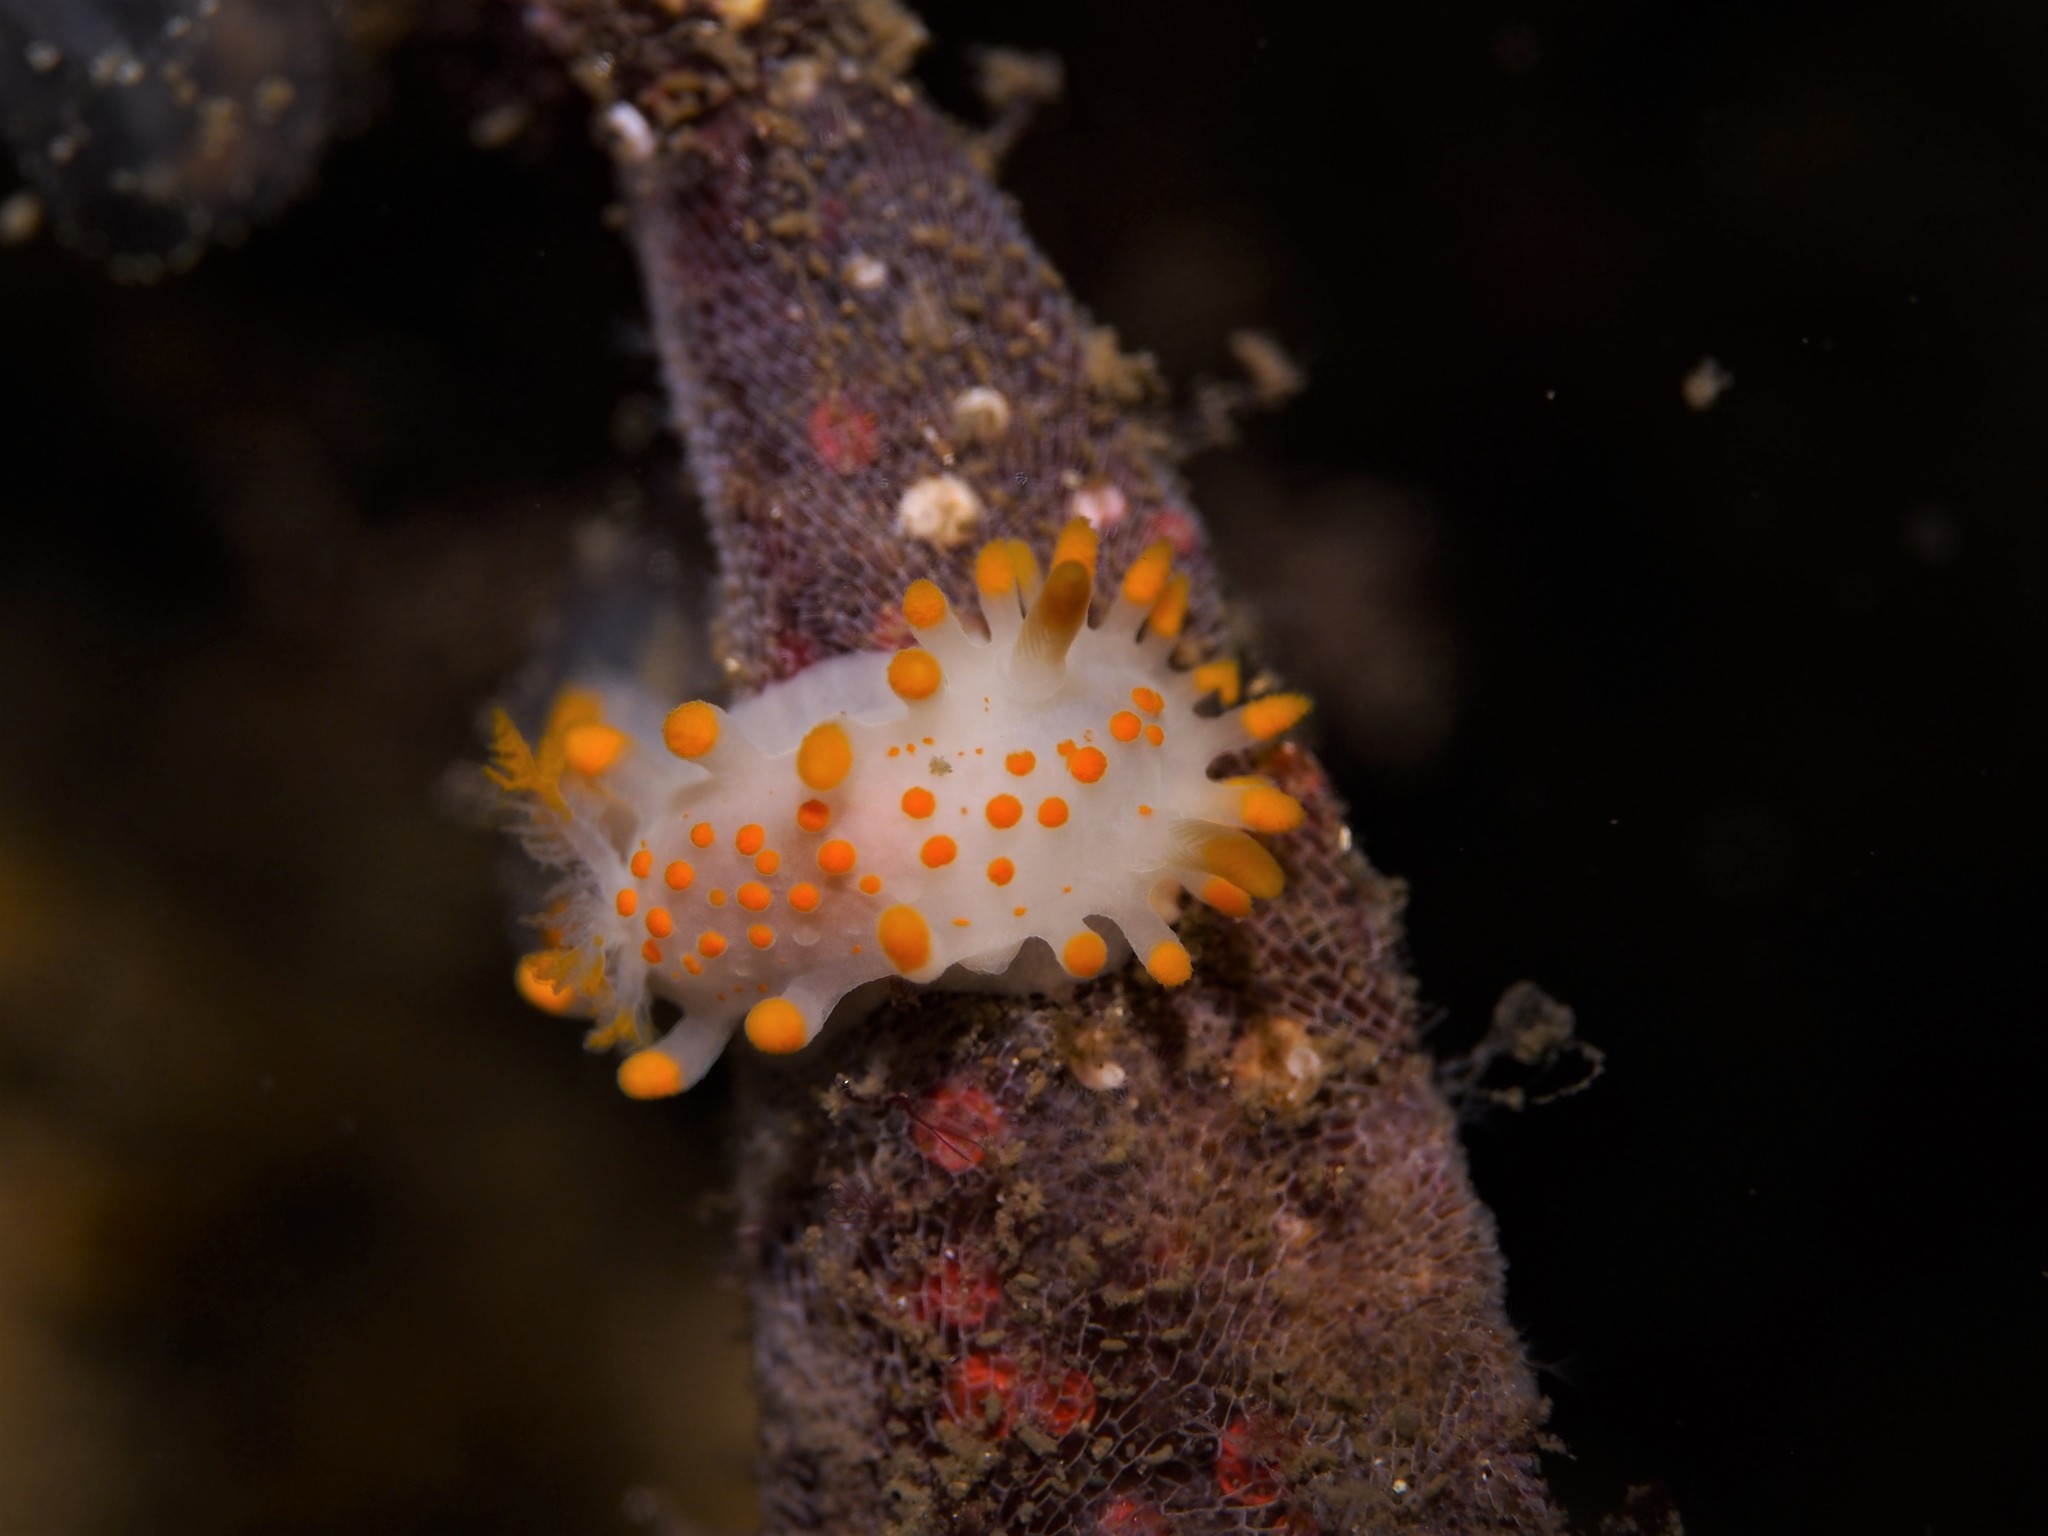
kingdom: Animalia
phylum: Mollusca
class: Gastropoda
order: Nudibranchia
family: Polyceridae
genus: Limacia
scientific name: Limacia clavigera
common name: Orange-clubbed sea slug
